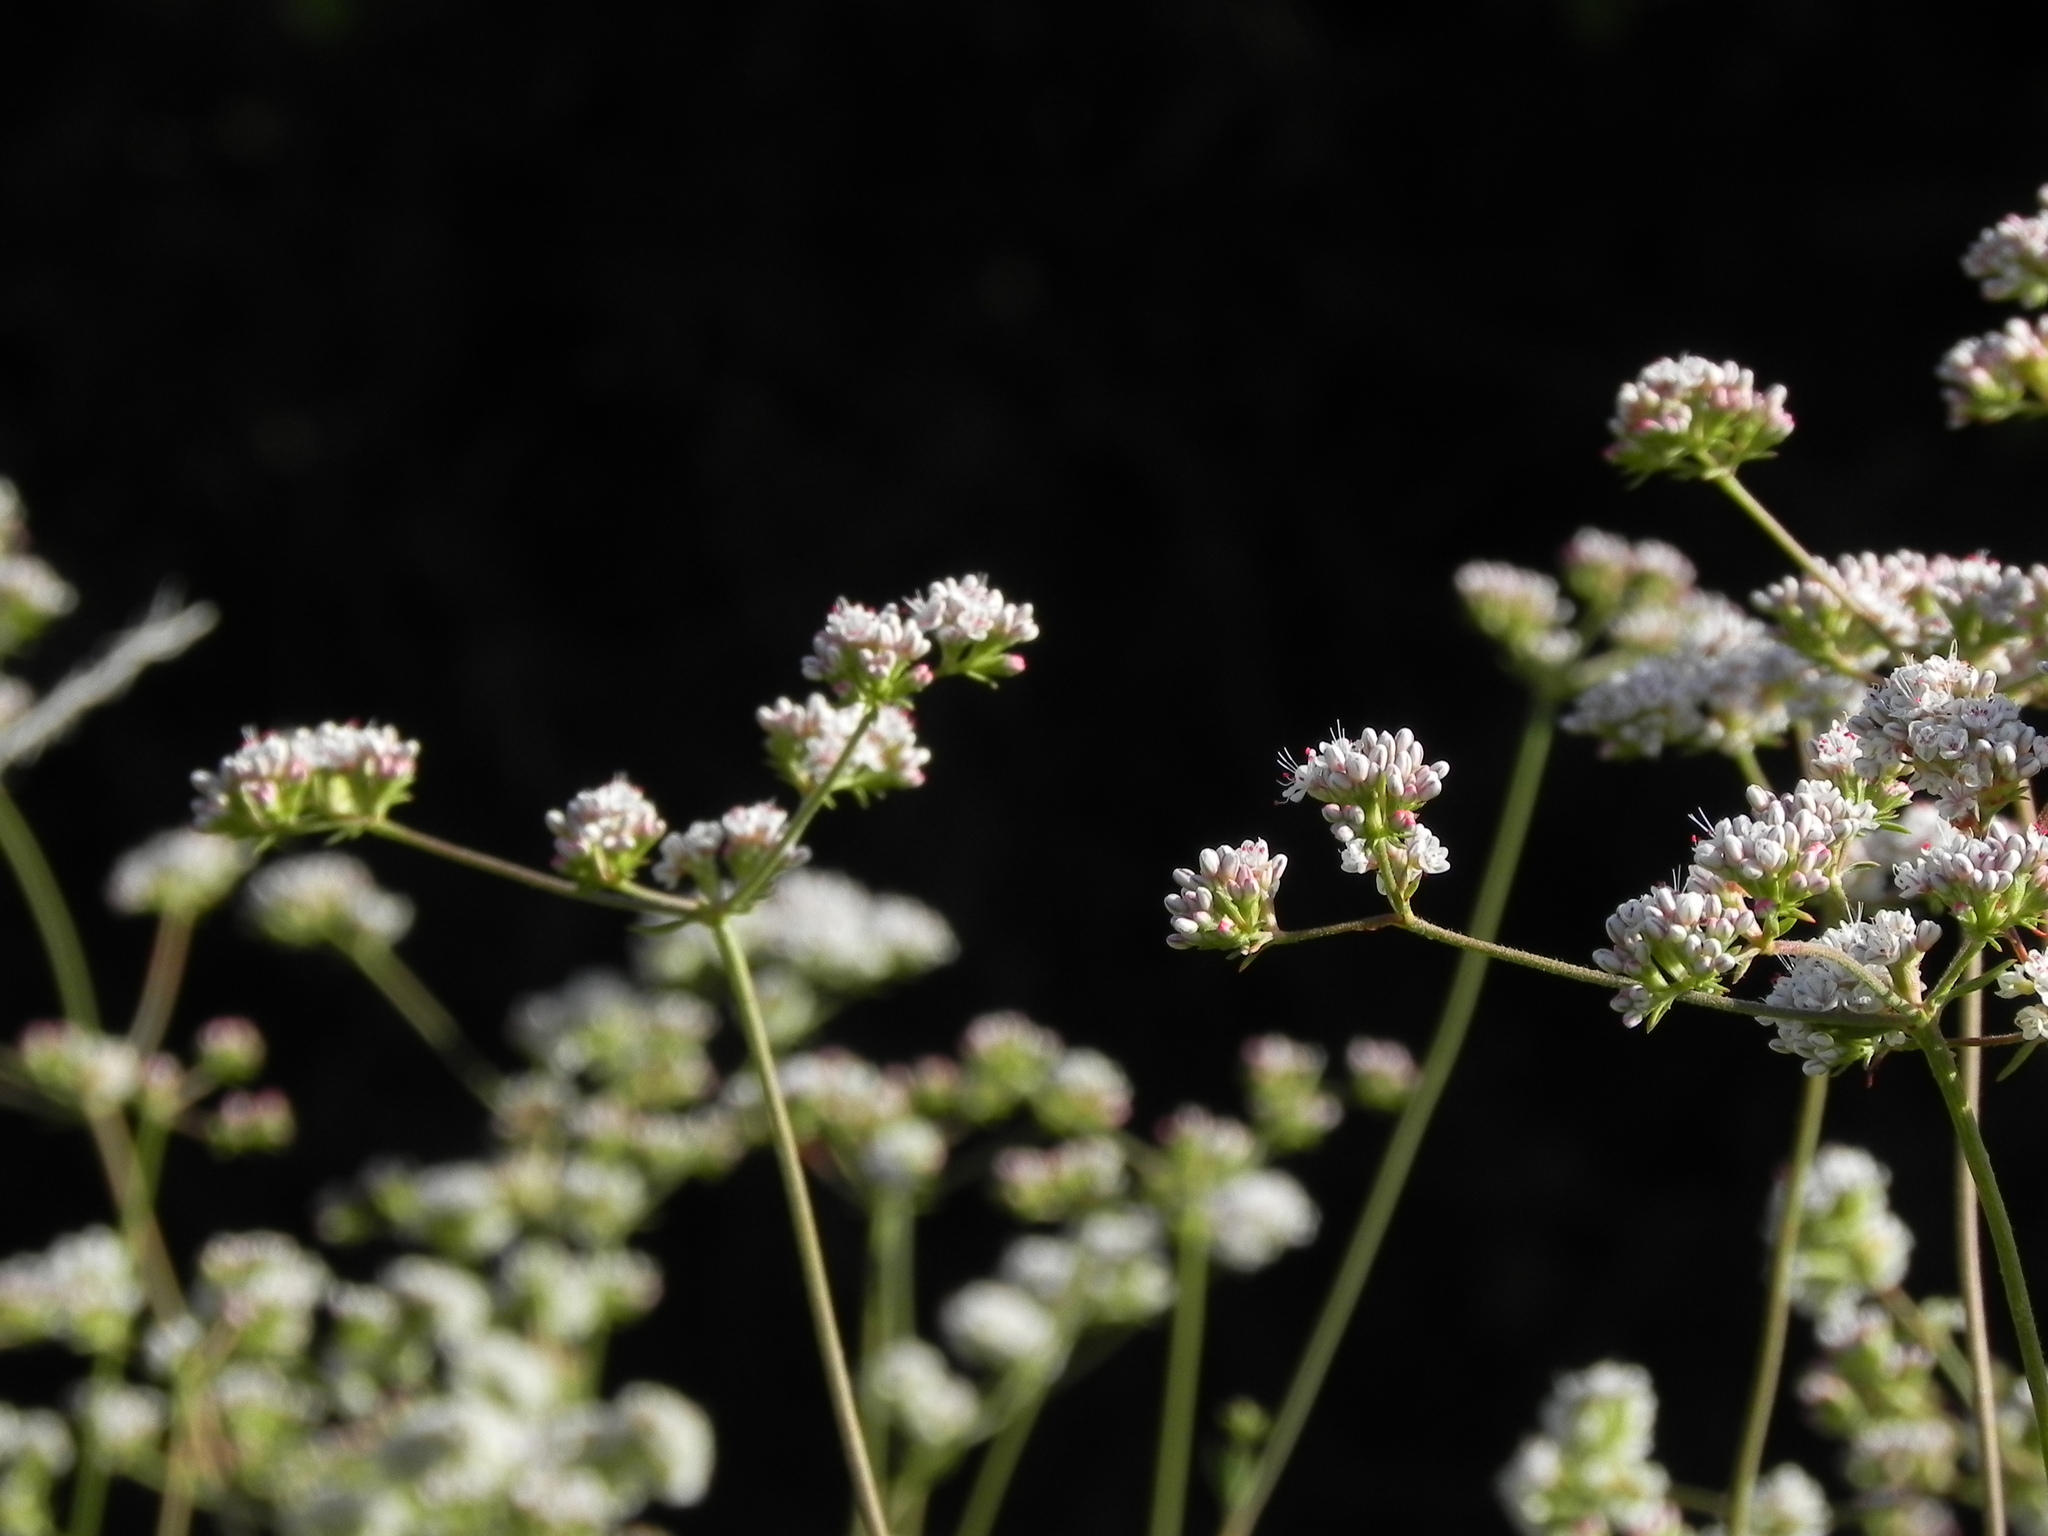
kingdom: Plantae
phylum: Tracheophyta
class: Magnoliopsida
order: Caryophyllales
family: Polygonaceae
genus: Eriogonum
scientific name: Eriogonum fasciculatum
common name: California wild buckwheat
